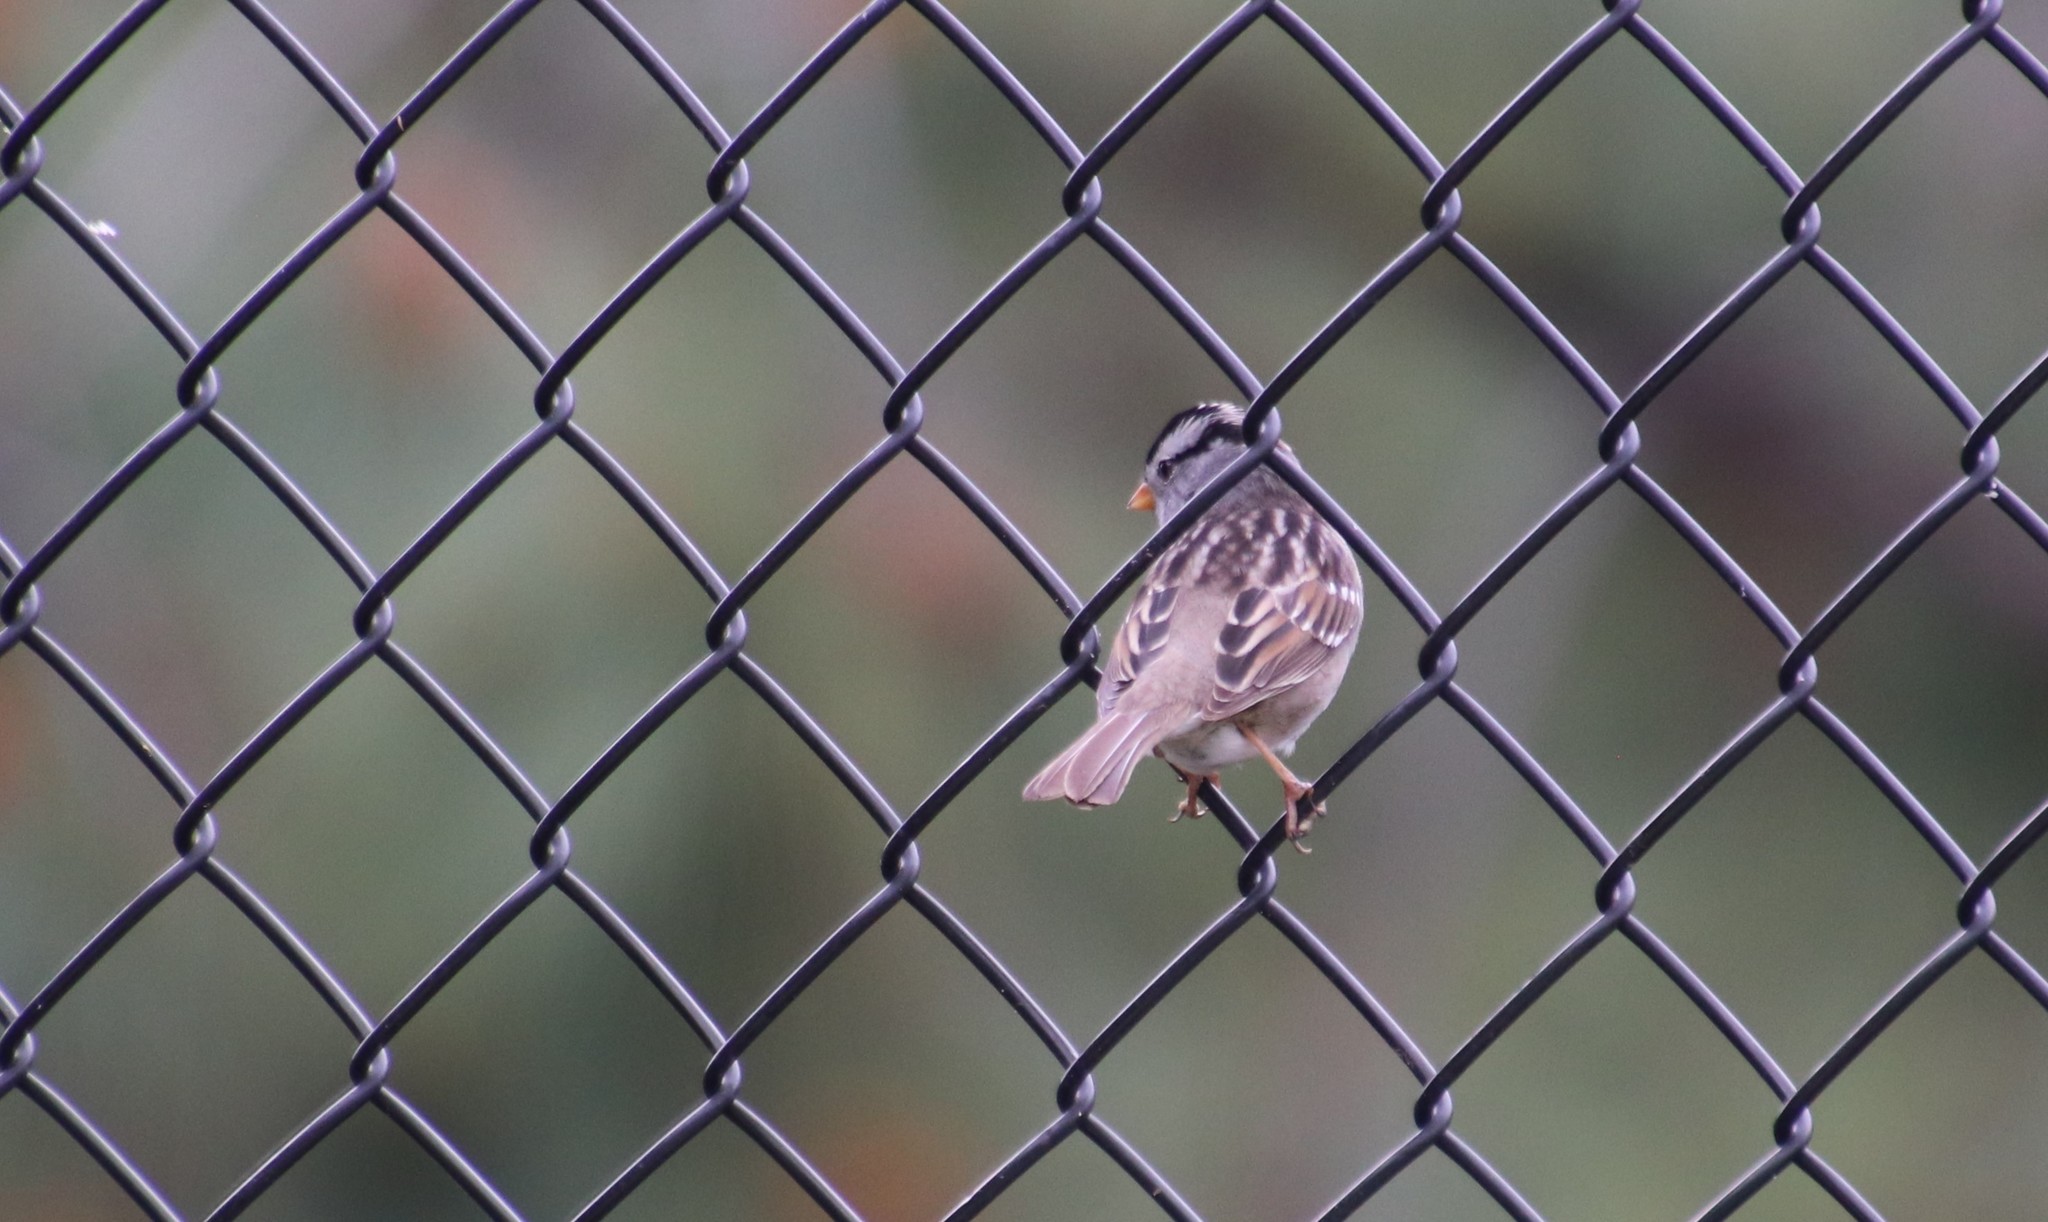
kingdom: Animalia
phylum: Chordata
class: Aves
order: Passeriformes
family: Passerellidae
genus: Zonotrichia
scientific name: Zonotrichia leucophrys
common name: White-crowned sparrow
